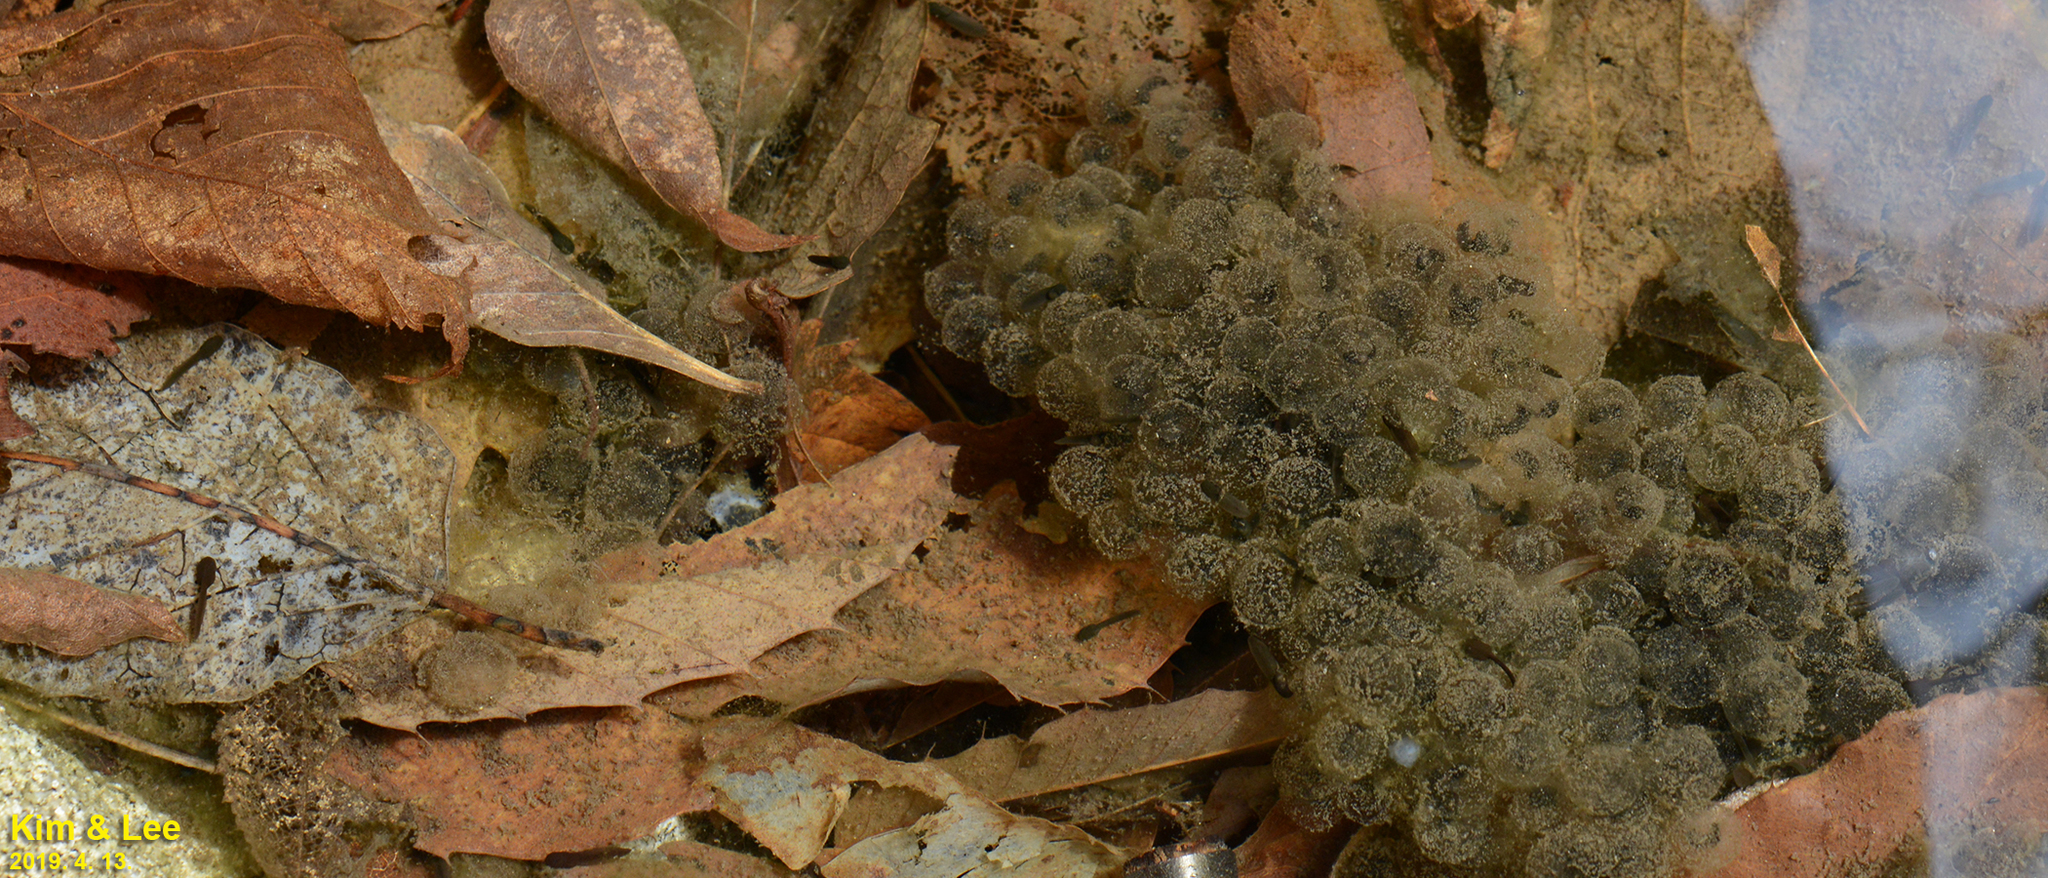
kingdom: Animalia
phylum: Chordata
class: Amphibia
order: Anura
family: Ranidae
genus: Rana
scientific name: Rana huanrenensis
